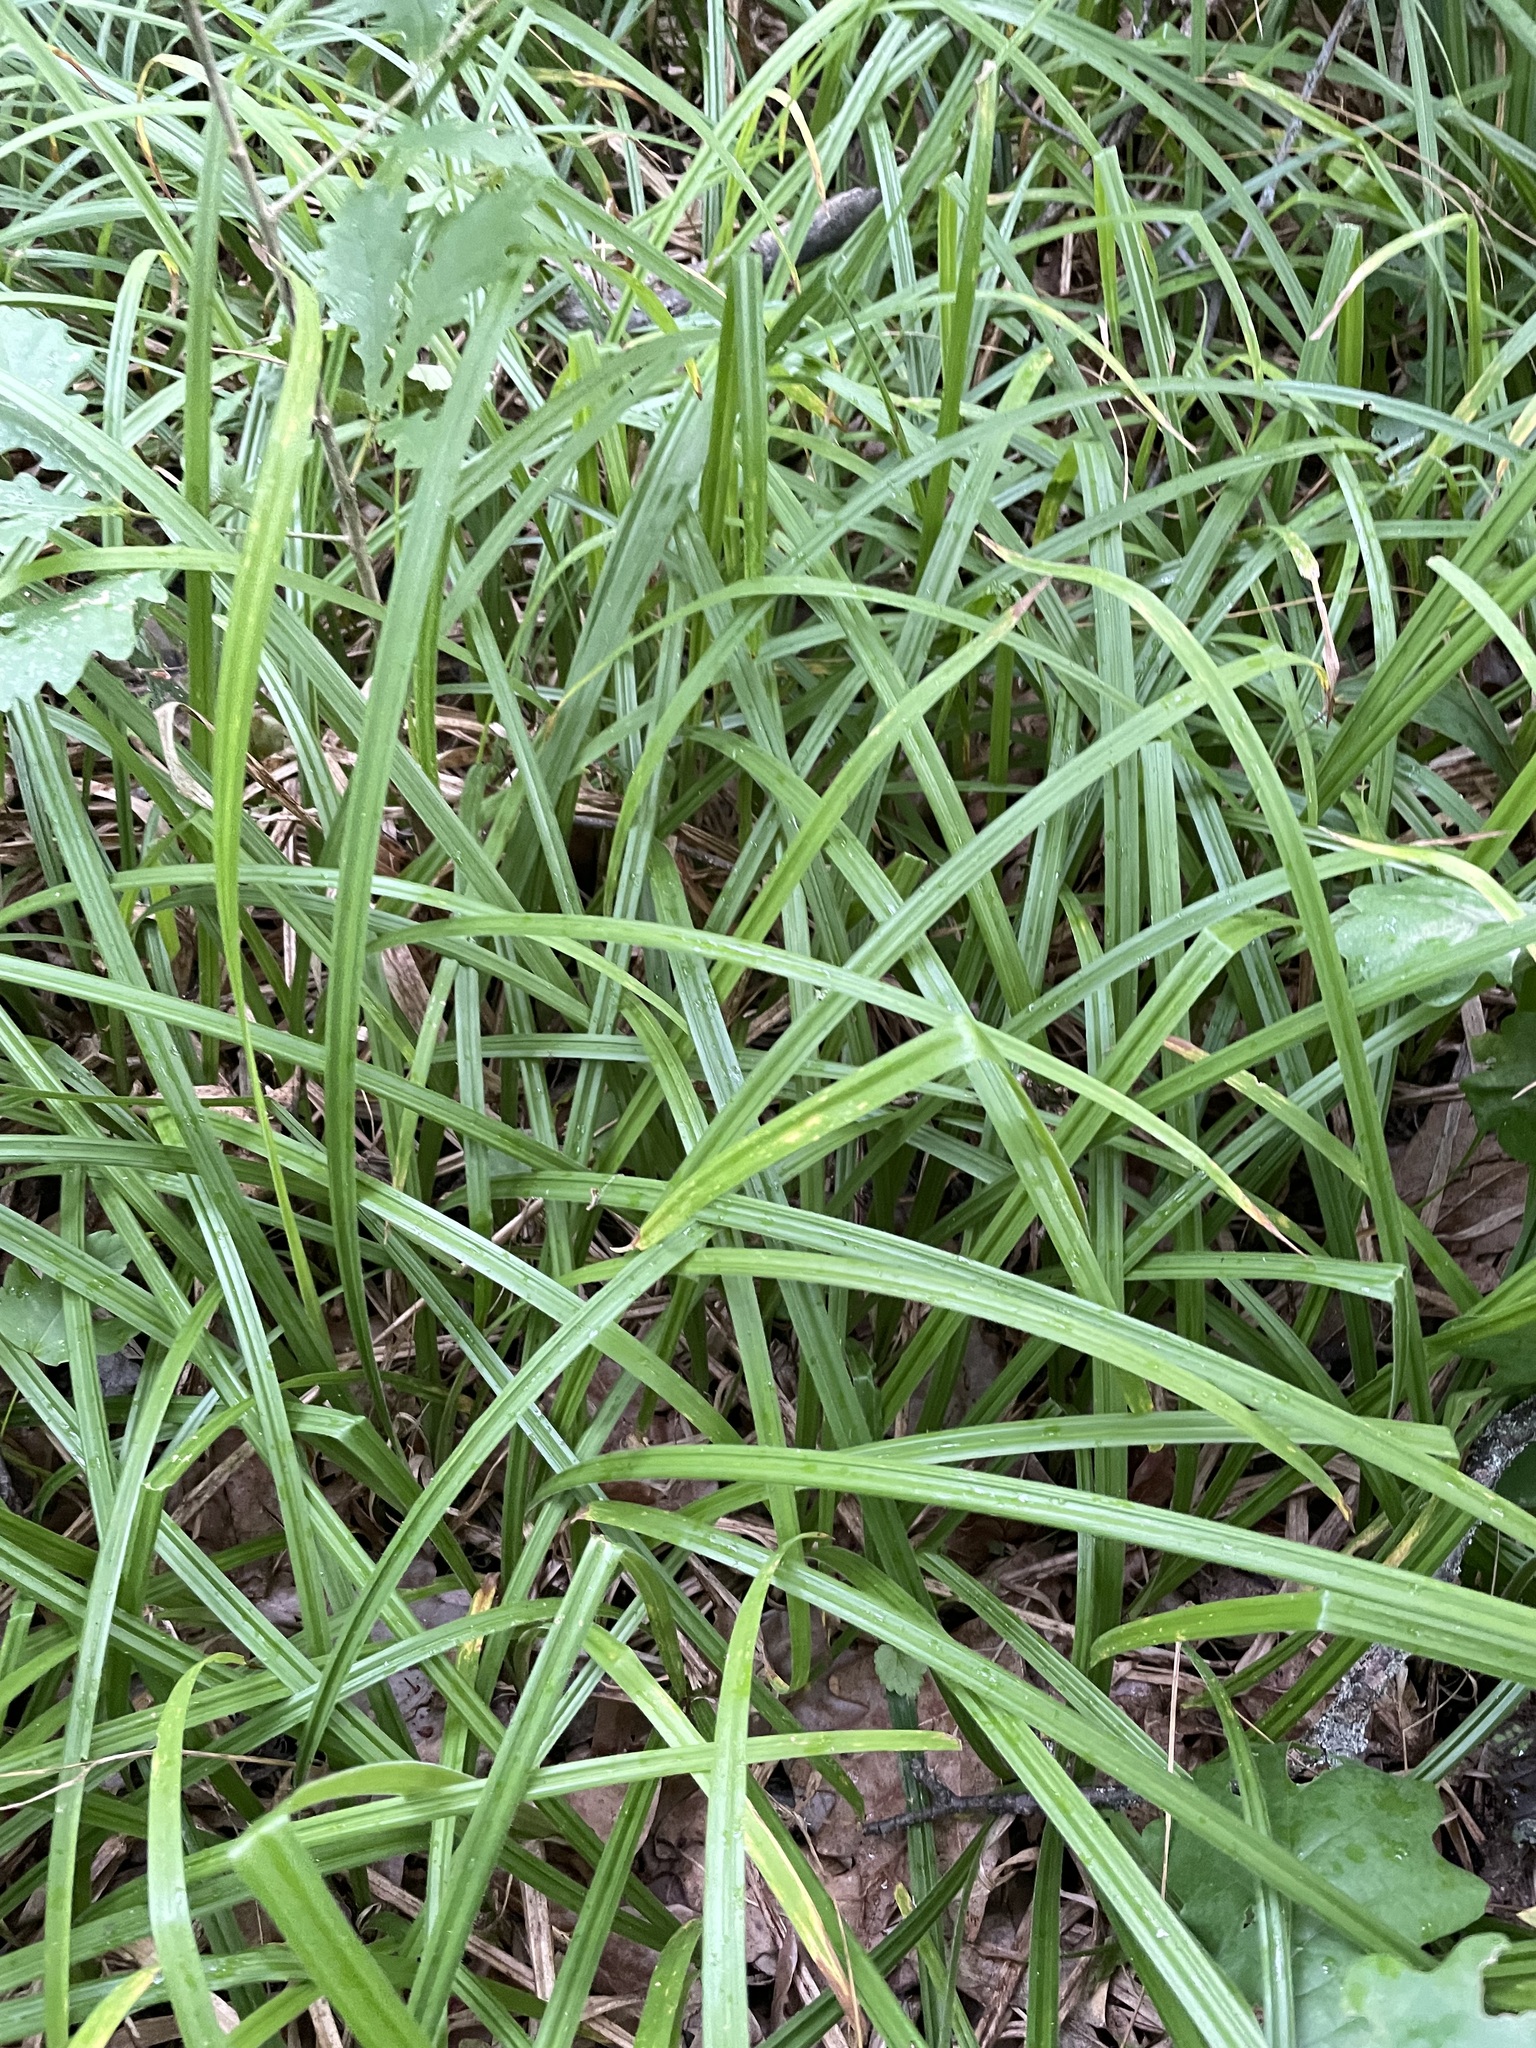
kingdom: Plantae
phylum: Tracheophyta
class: Liliopsida
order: Poales
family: Cyperaceae
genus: Carex
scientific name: Carex pilosa
